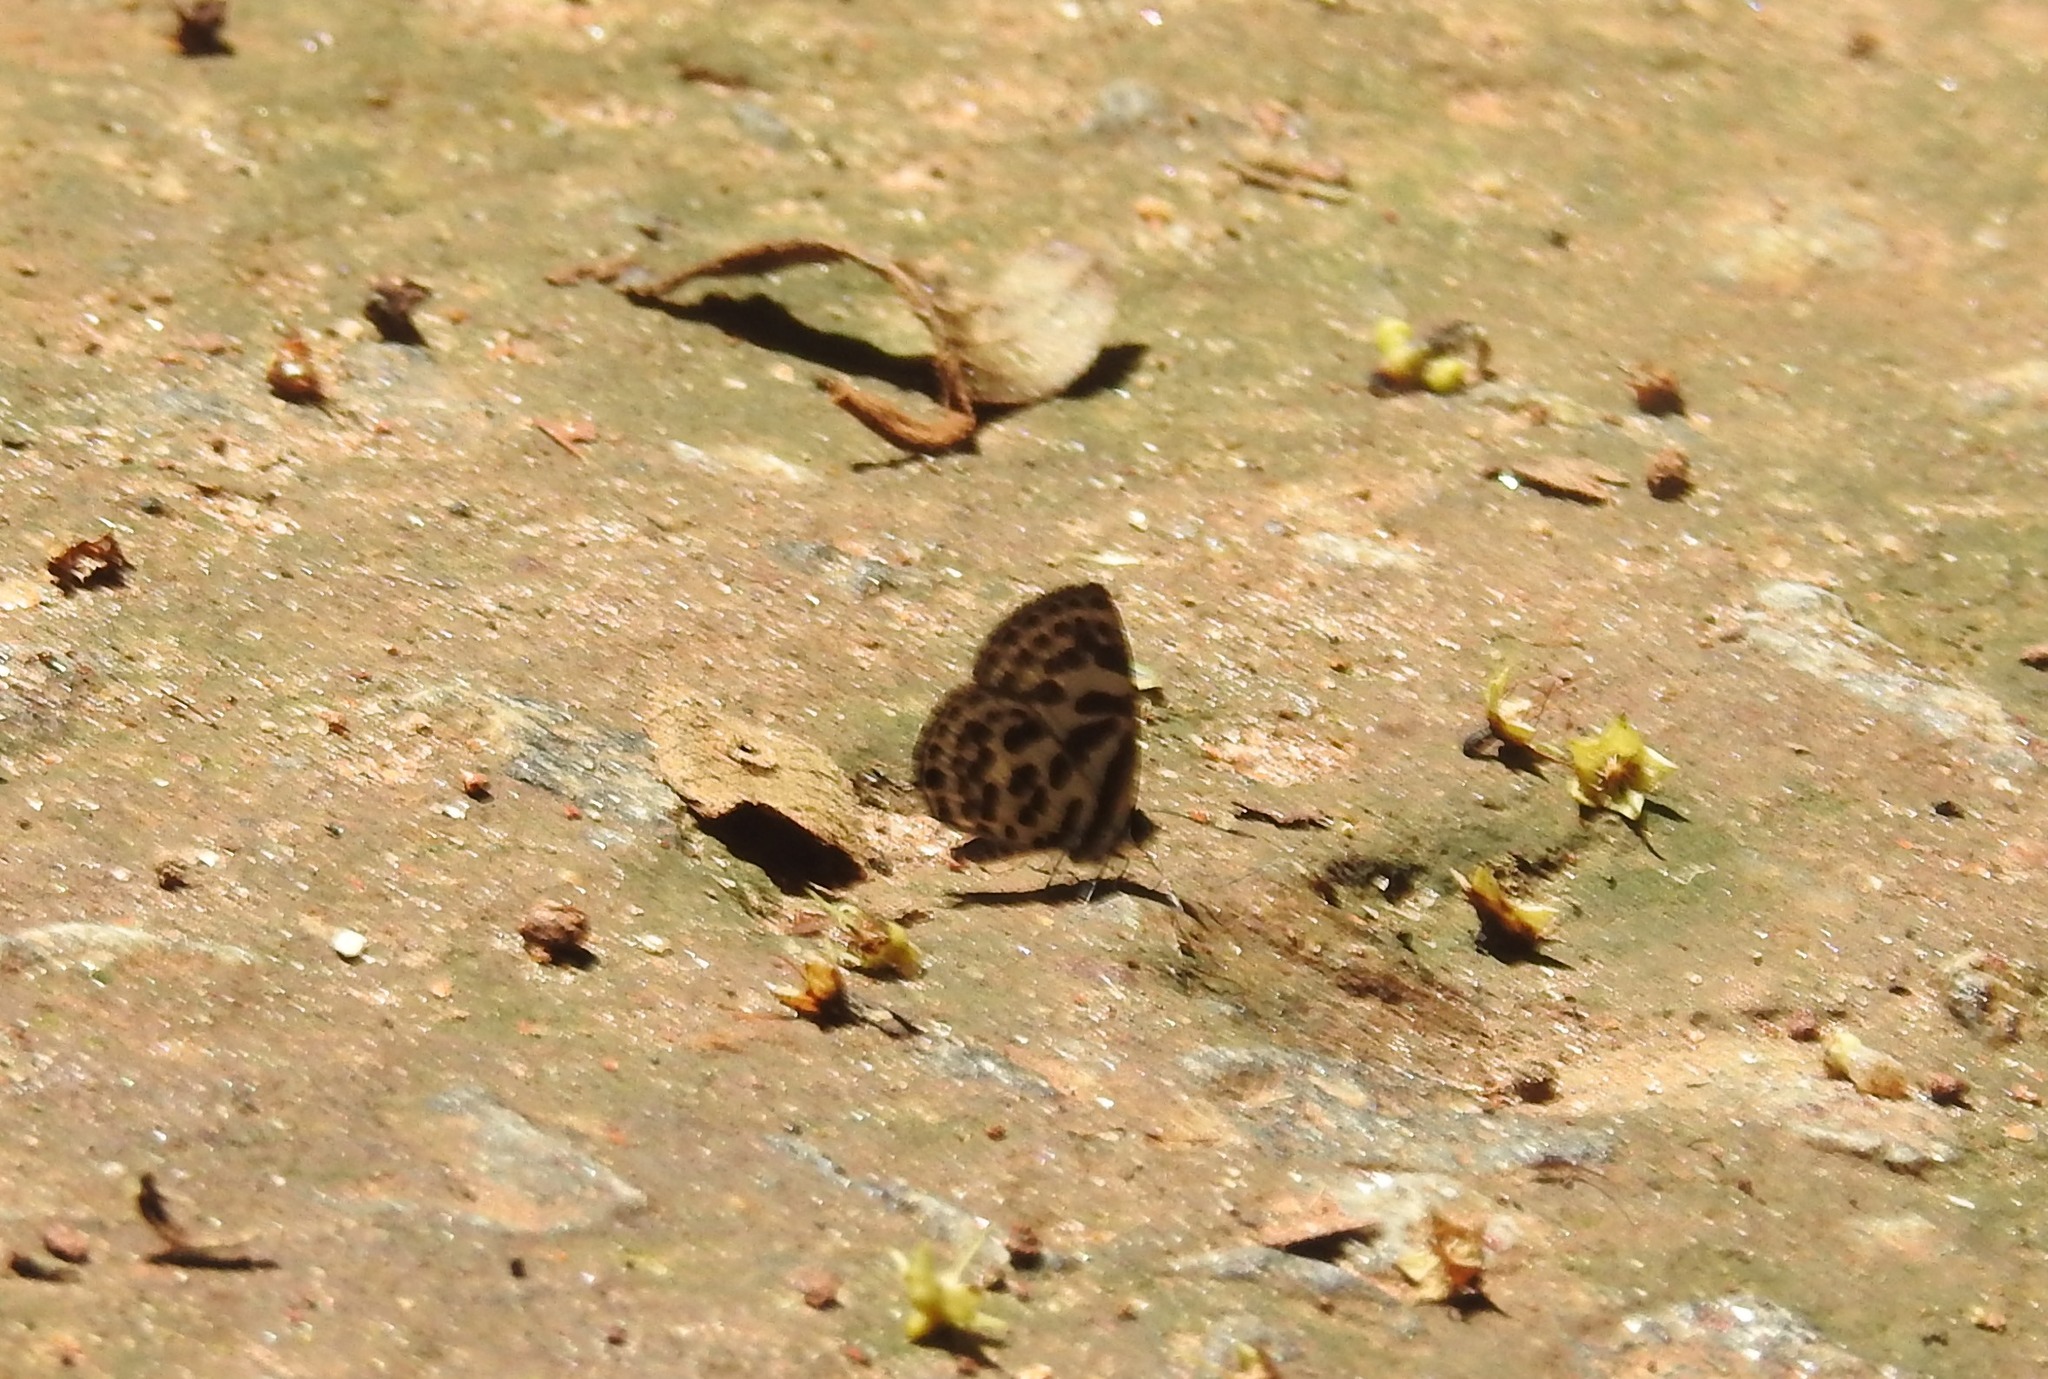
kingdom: Animalia
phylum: Arthropoda
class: Insecta
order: Lepidoptera
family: Lycaenidae
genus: Tarucus
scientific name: Tarucus
